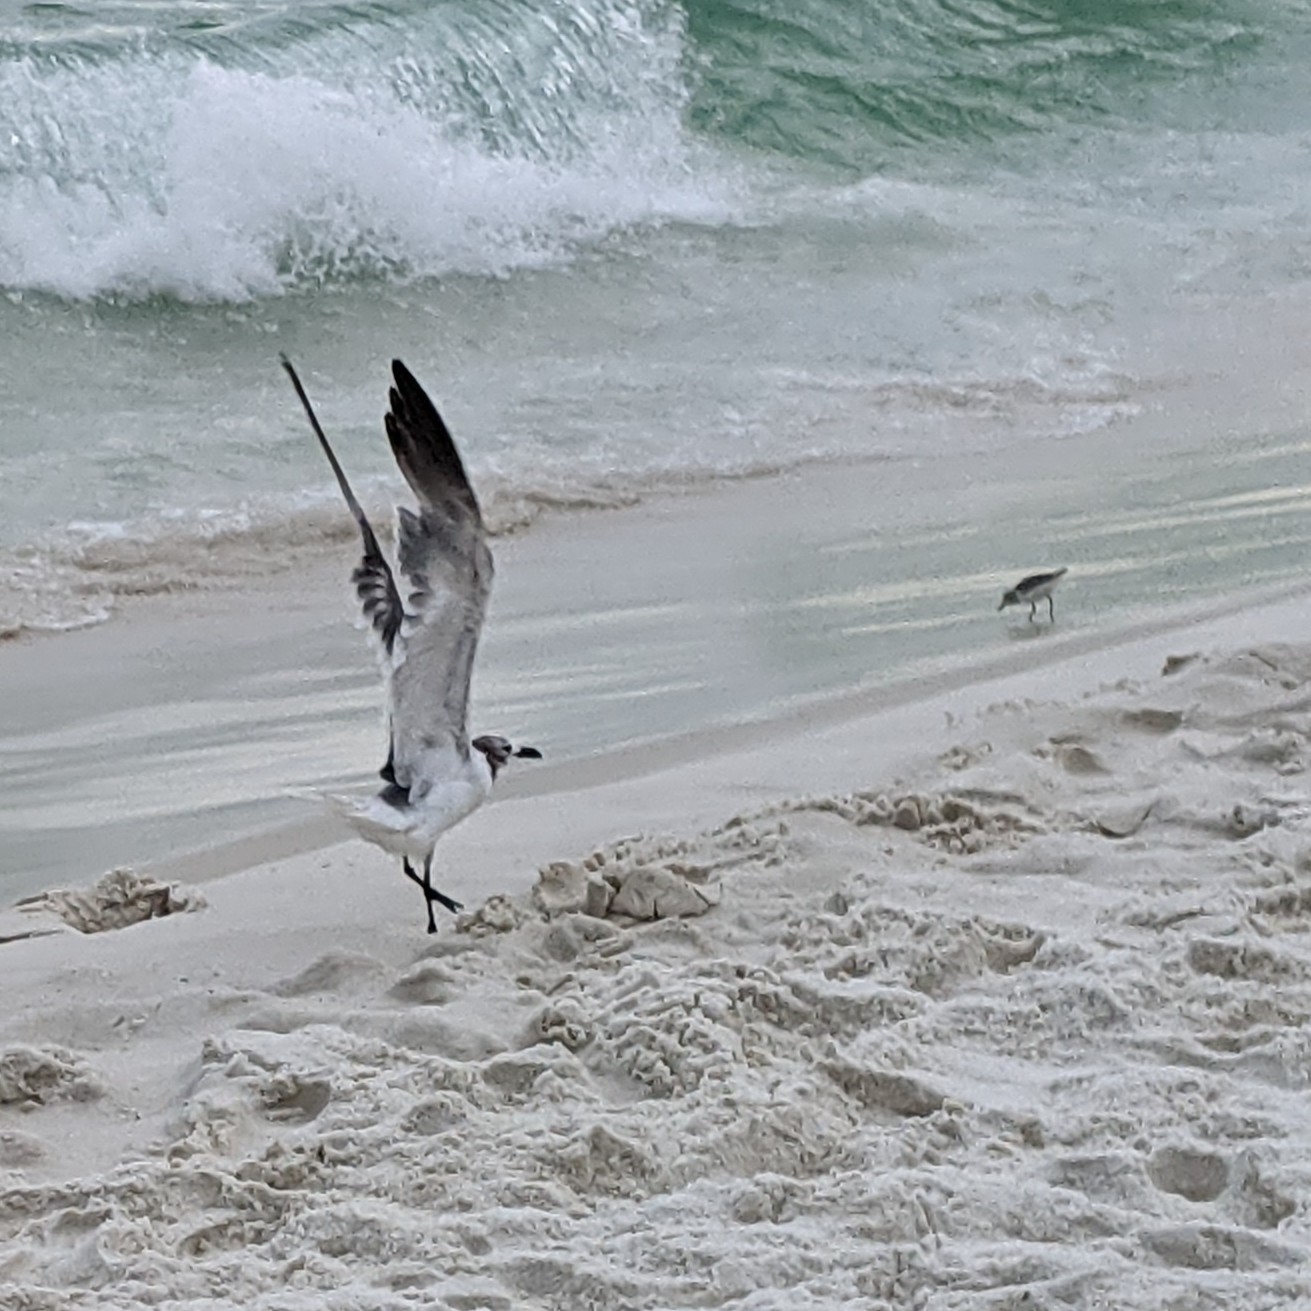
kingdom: Animalia
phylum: Chordata
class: Aves
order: Charadriiformes
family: Laridae
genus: Leucophaeus
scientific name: Leucophaeus atricilla
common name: Laughing gull
